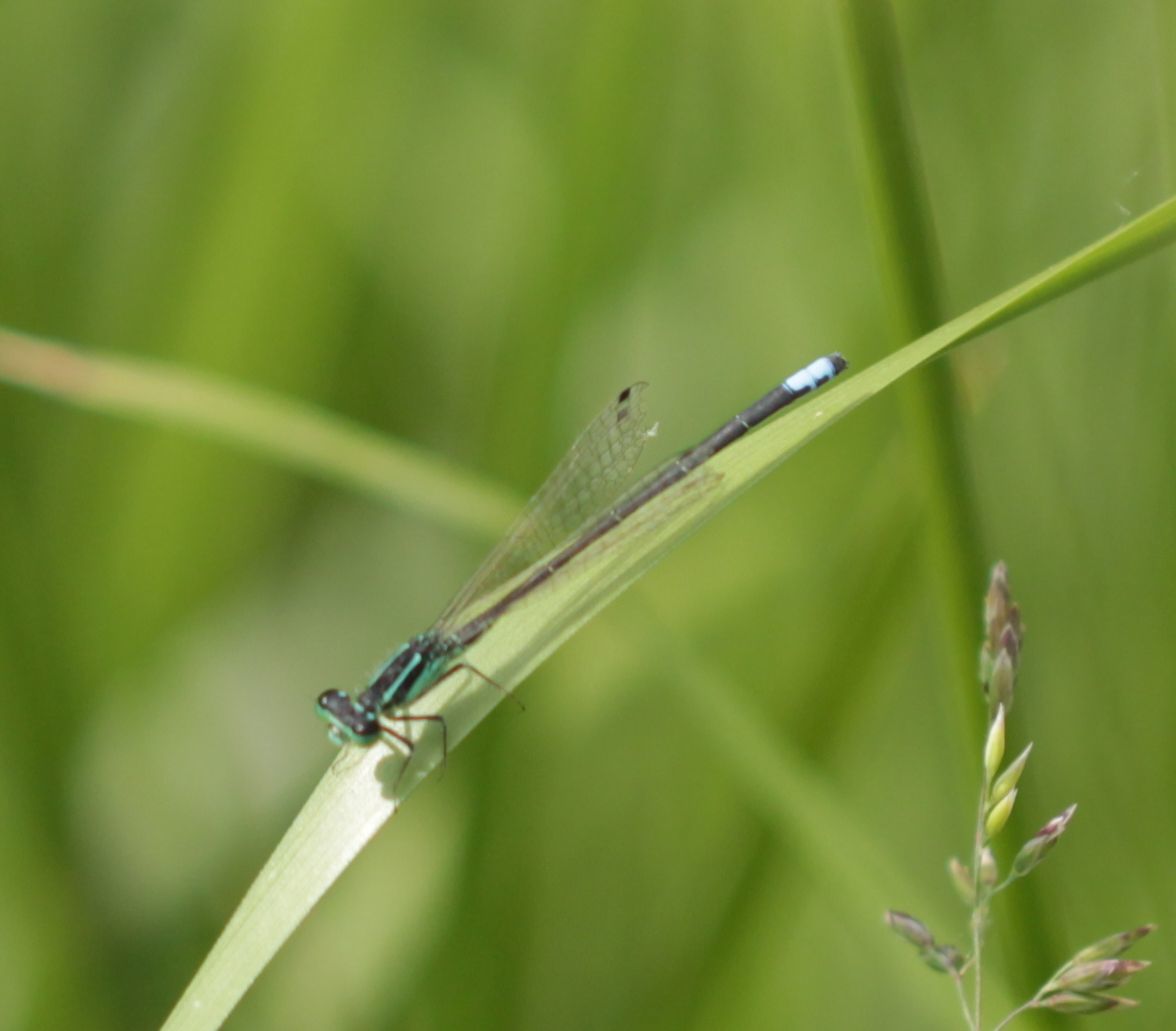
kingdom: Animalia
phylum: Arthropoda
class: Insecta
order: Odonata
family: Coenagrionidae
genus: Ischnura
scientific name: Ischnura verticalis
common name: Eastern forktail
